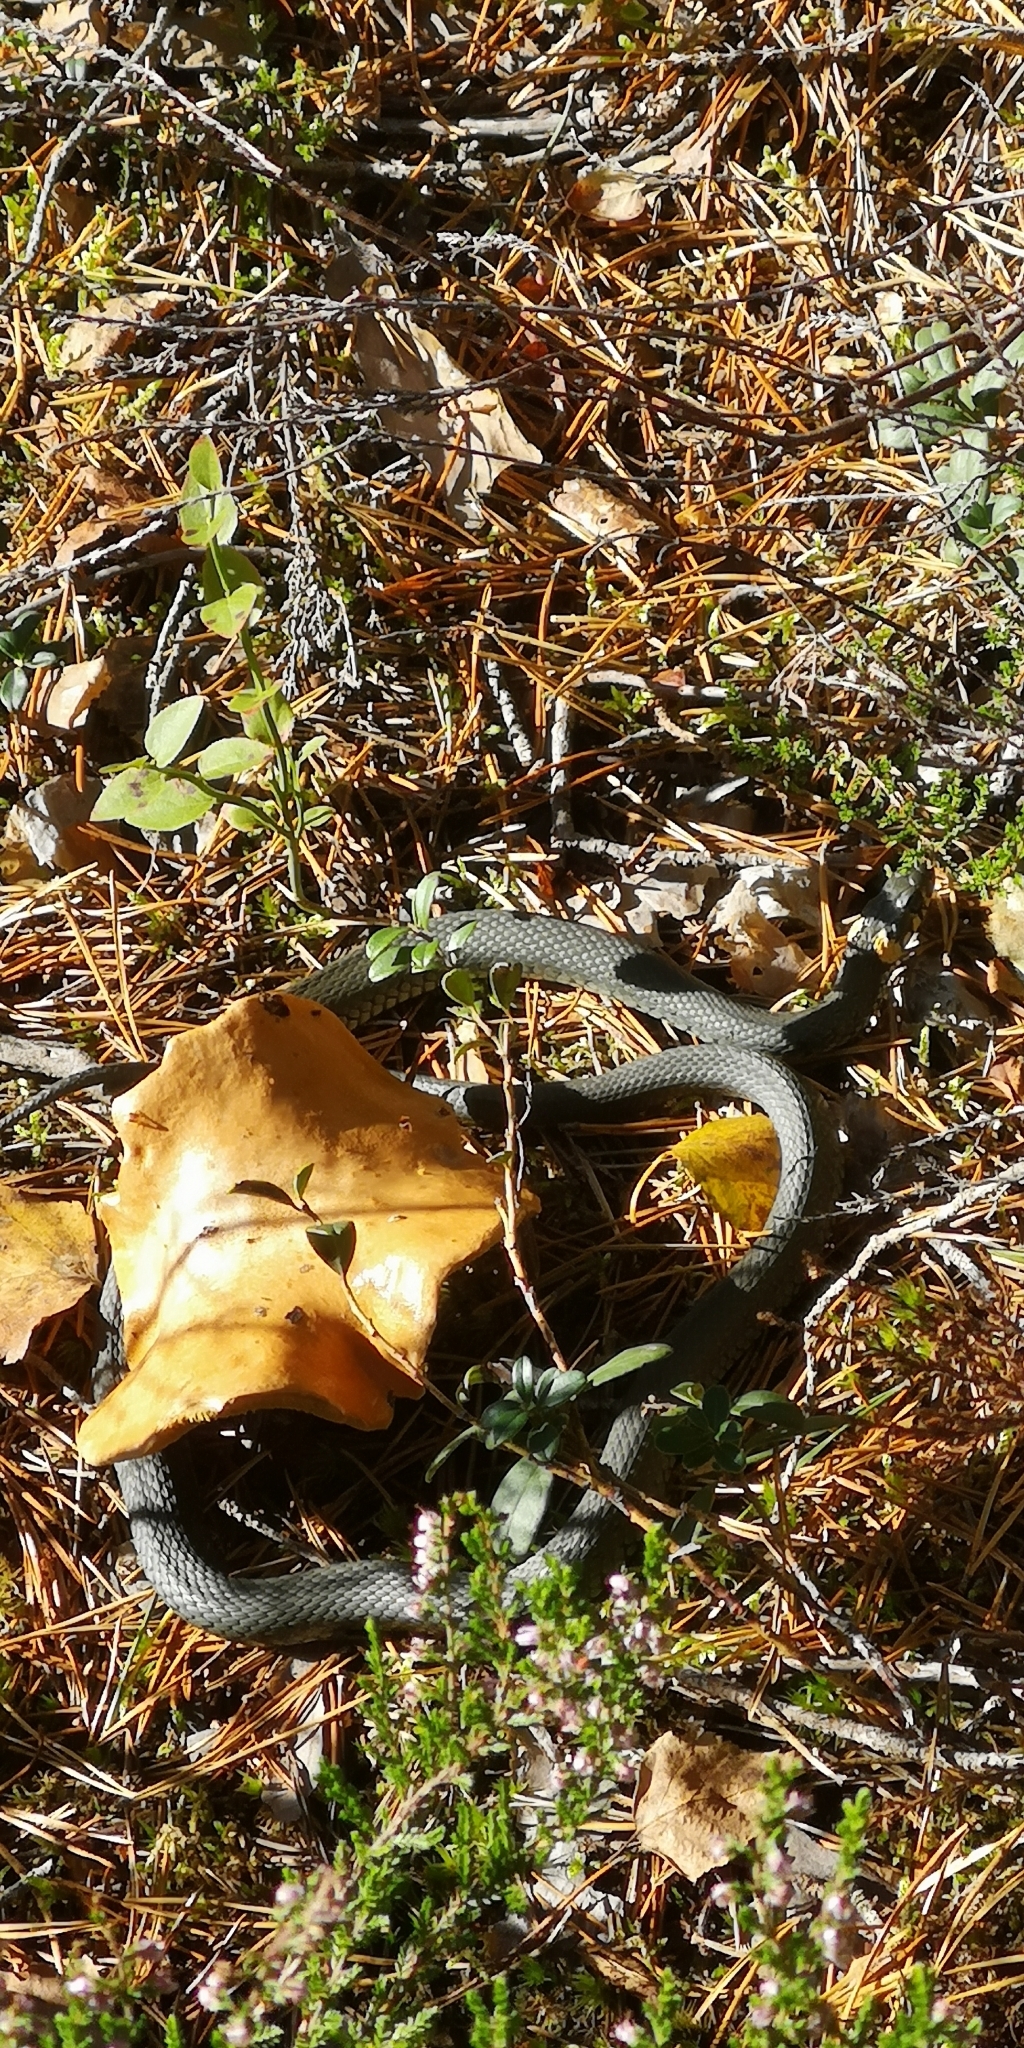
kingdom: Animalia
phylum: Chordata
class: Squamata
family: Colubridae
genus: Natrix
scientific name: Natrix natrix
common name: Grass snake
